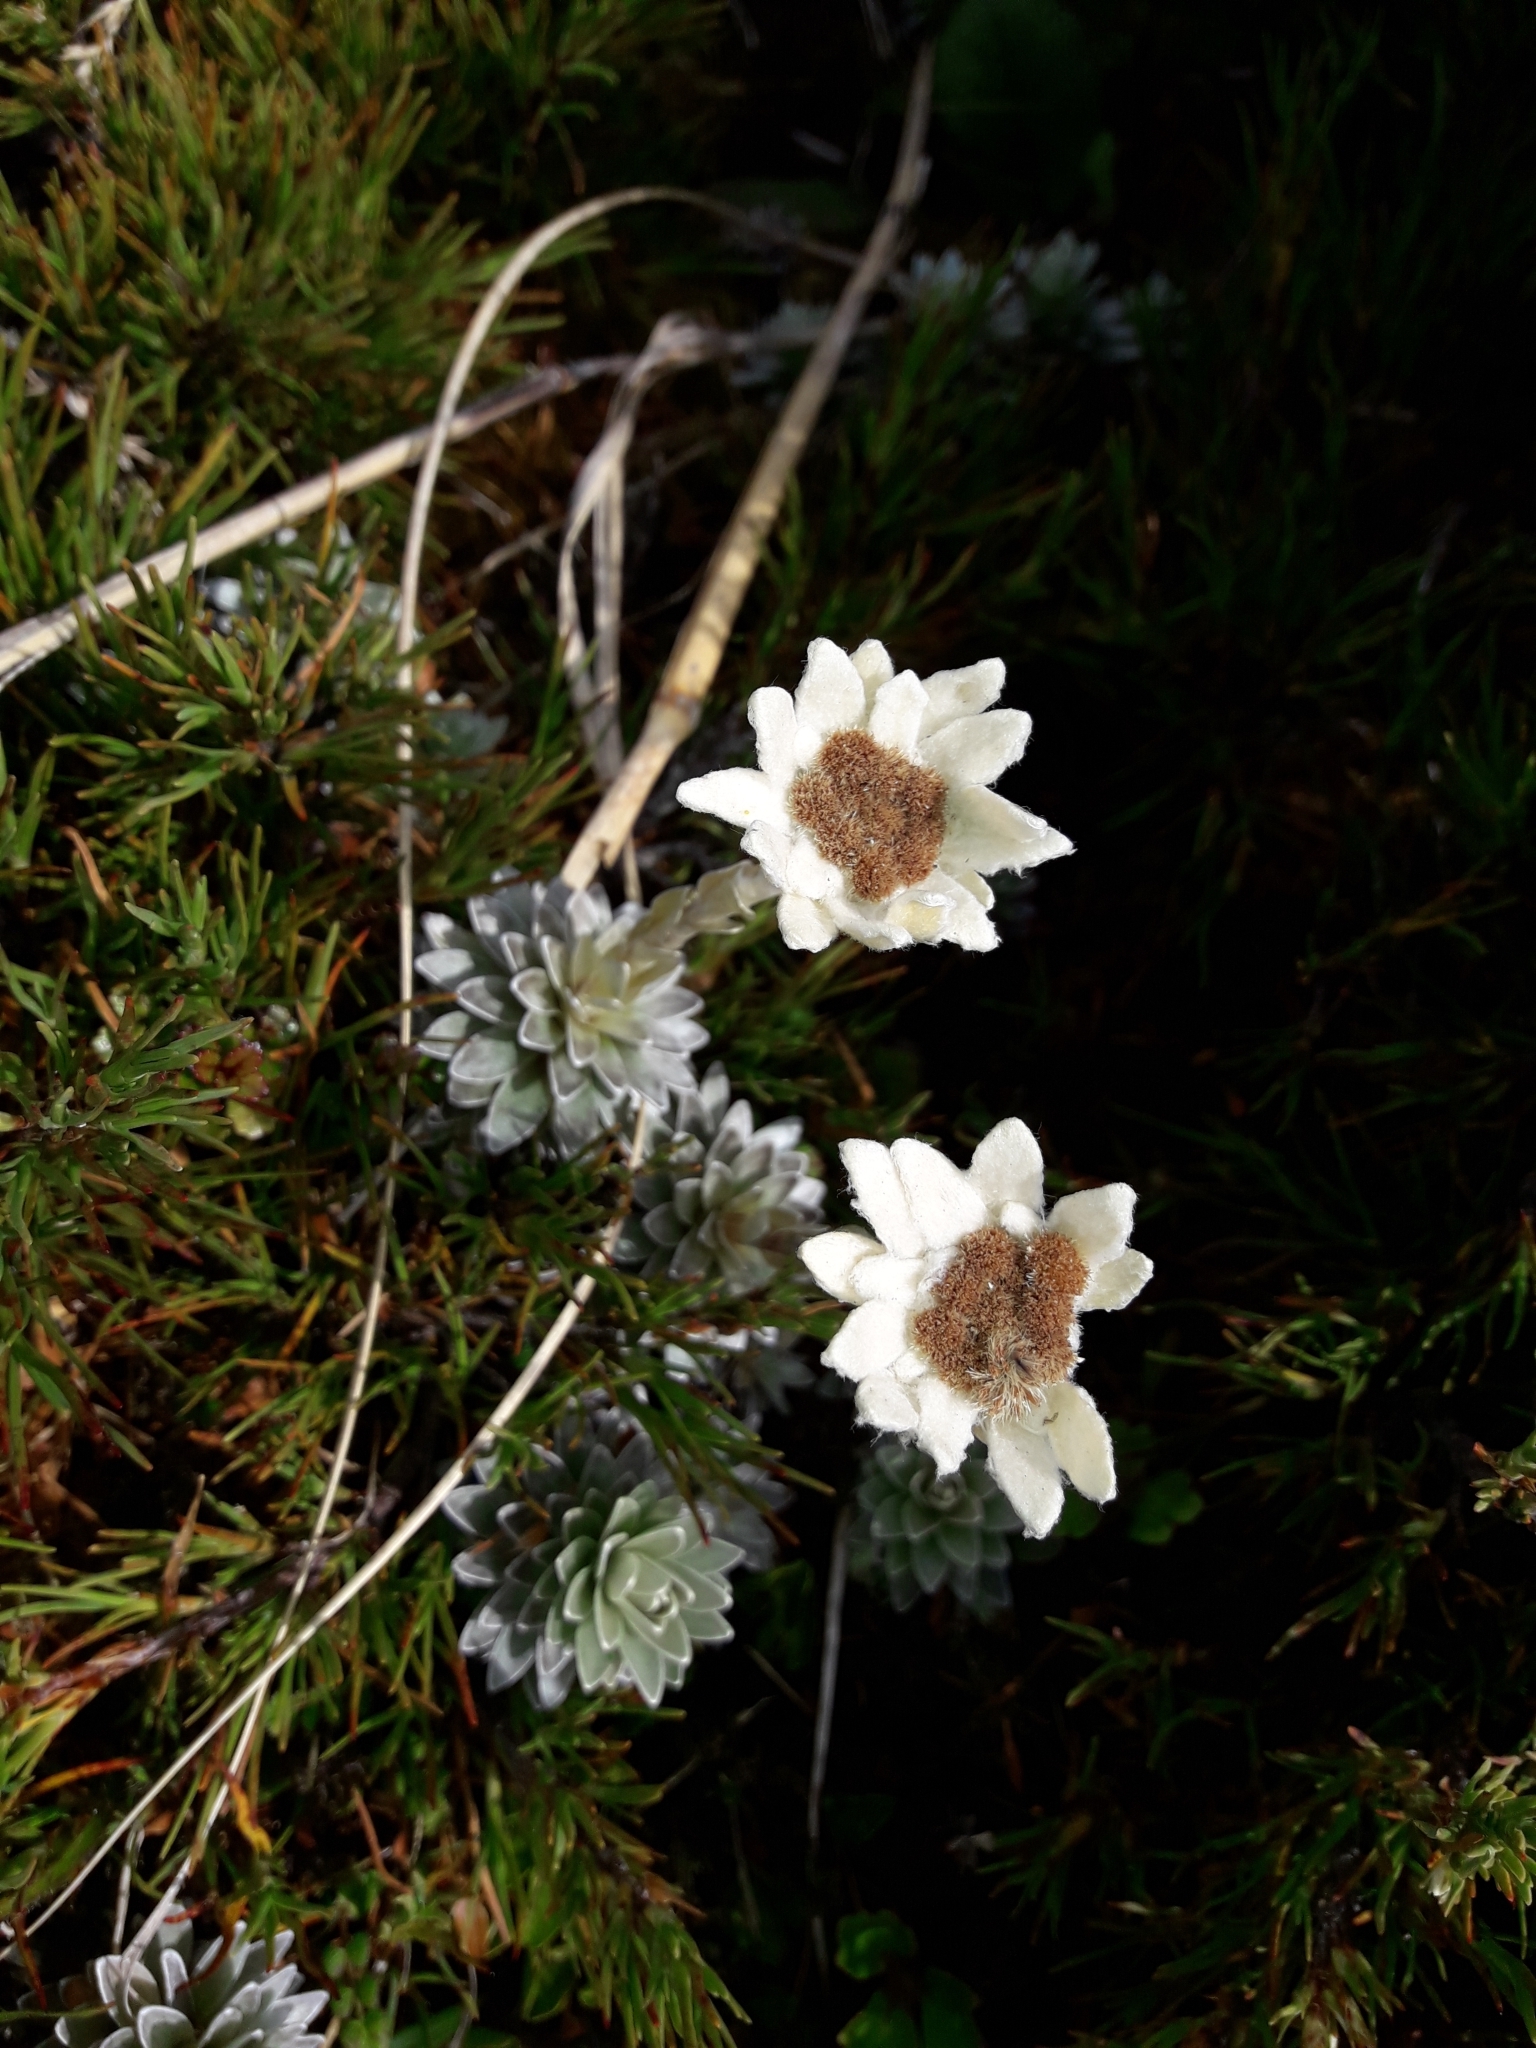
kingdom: Plantae
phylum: Tracheophyta
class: Magnoliopsida
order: Asterales
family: Asteraceae
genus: Leucogenes
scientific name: Leucogenes leontopodium
